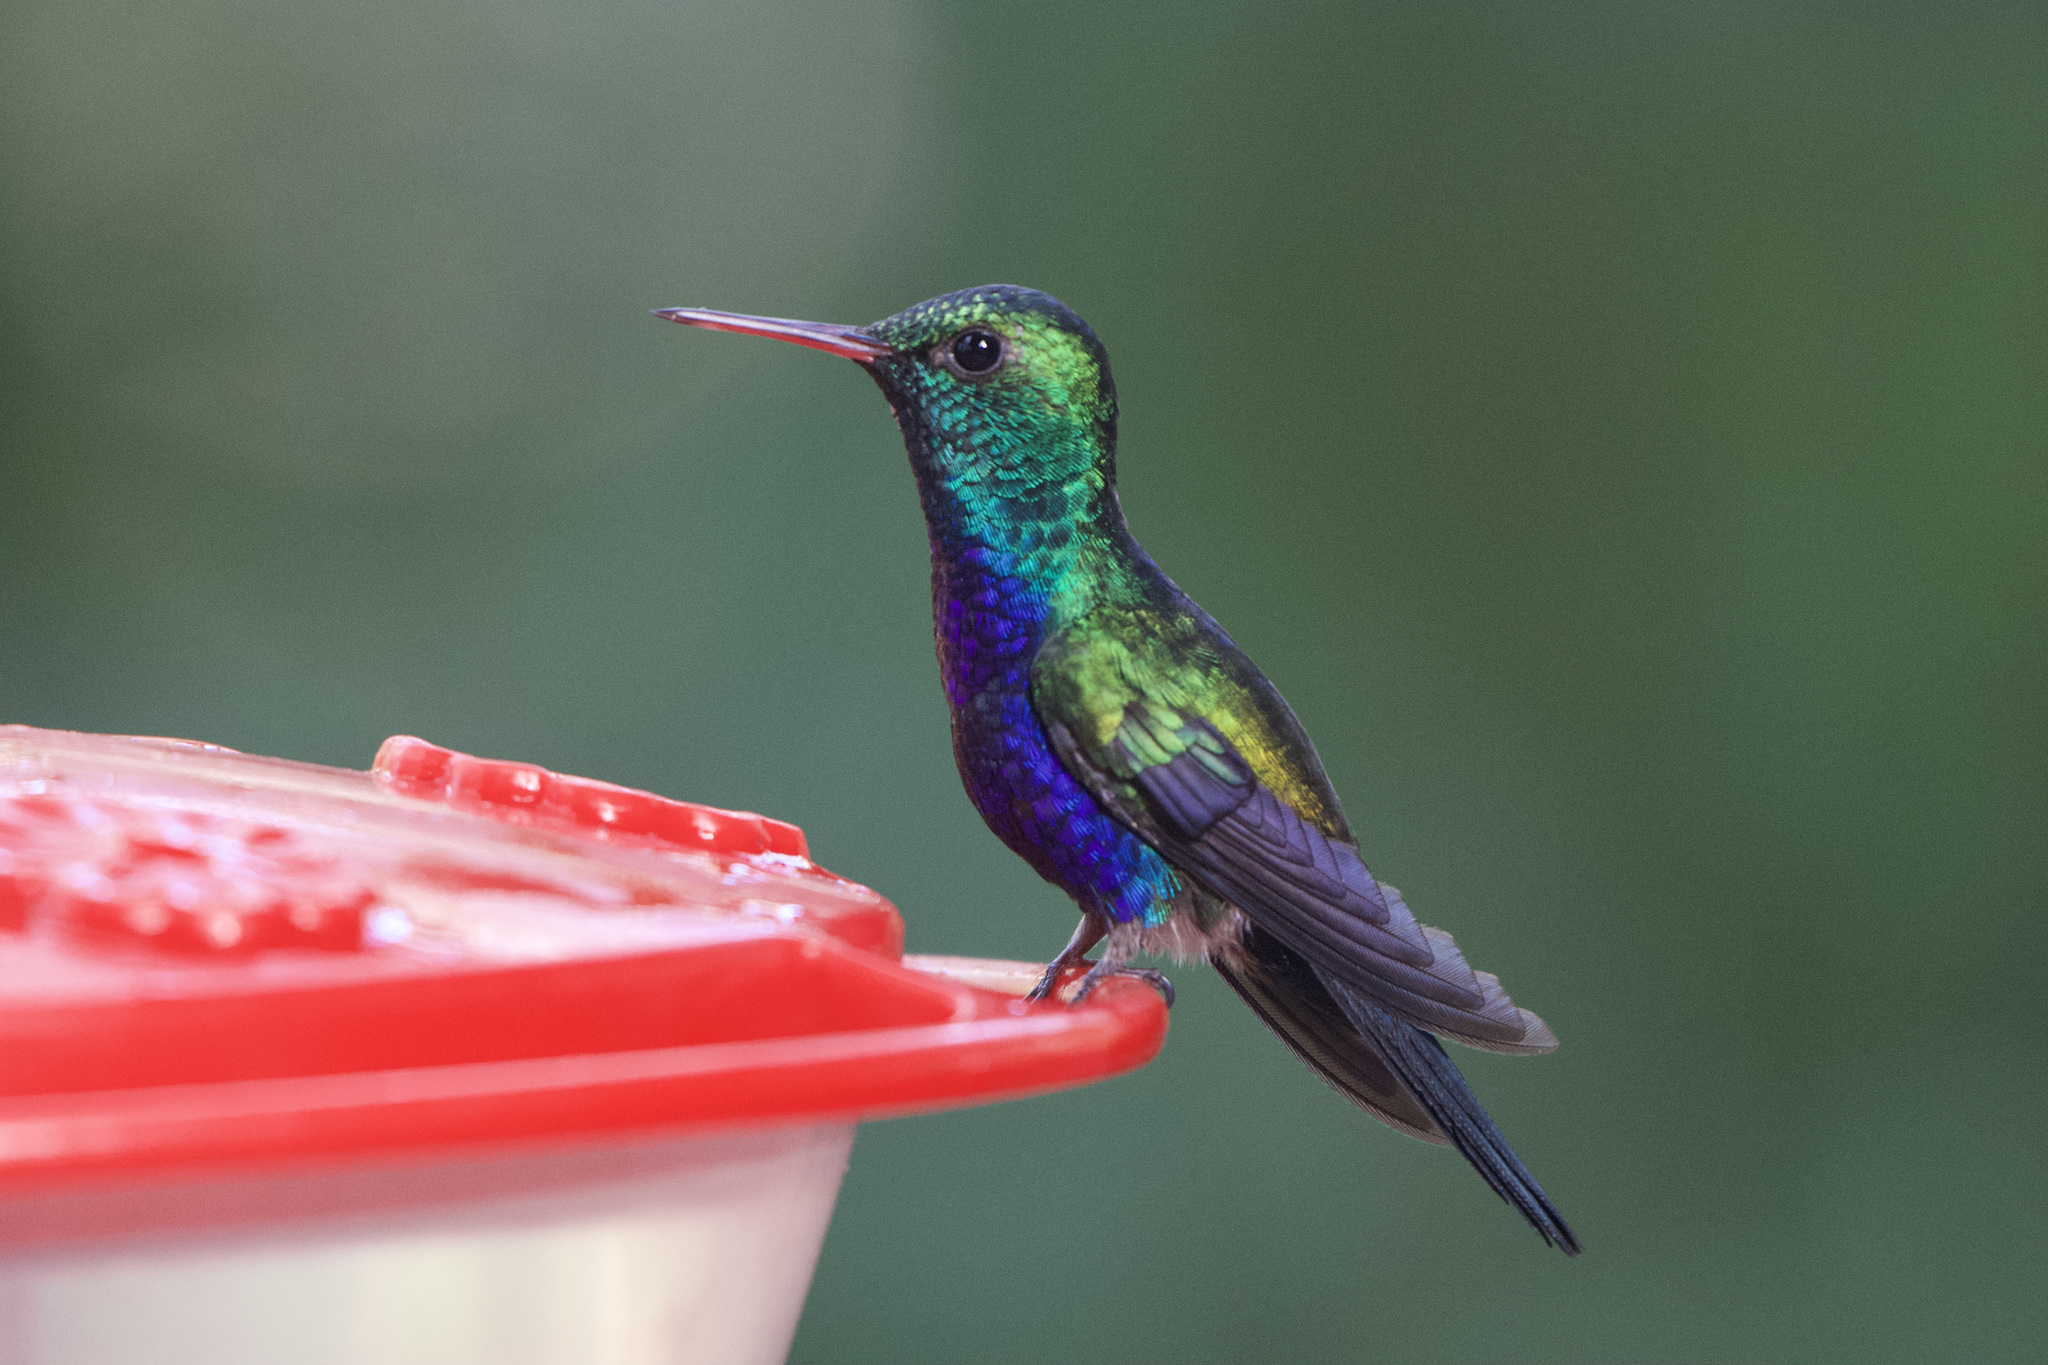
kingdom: Animalia
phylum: Chordata
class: Aves
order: Apodiformes
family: Trochilidae
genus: Chlorestes
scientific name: Chlorestes julie
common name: Violet-bellied hummingbird
